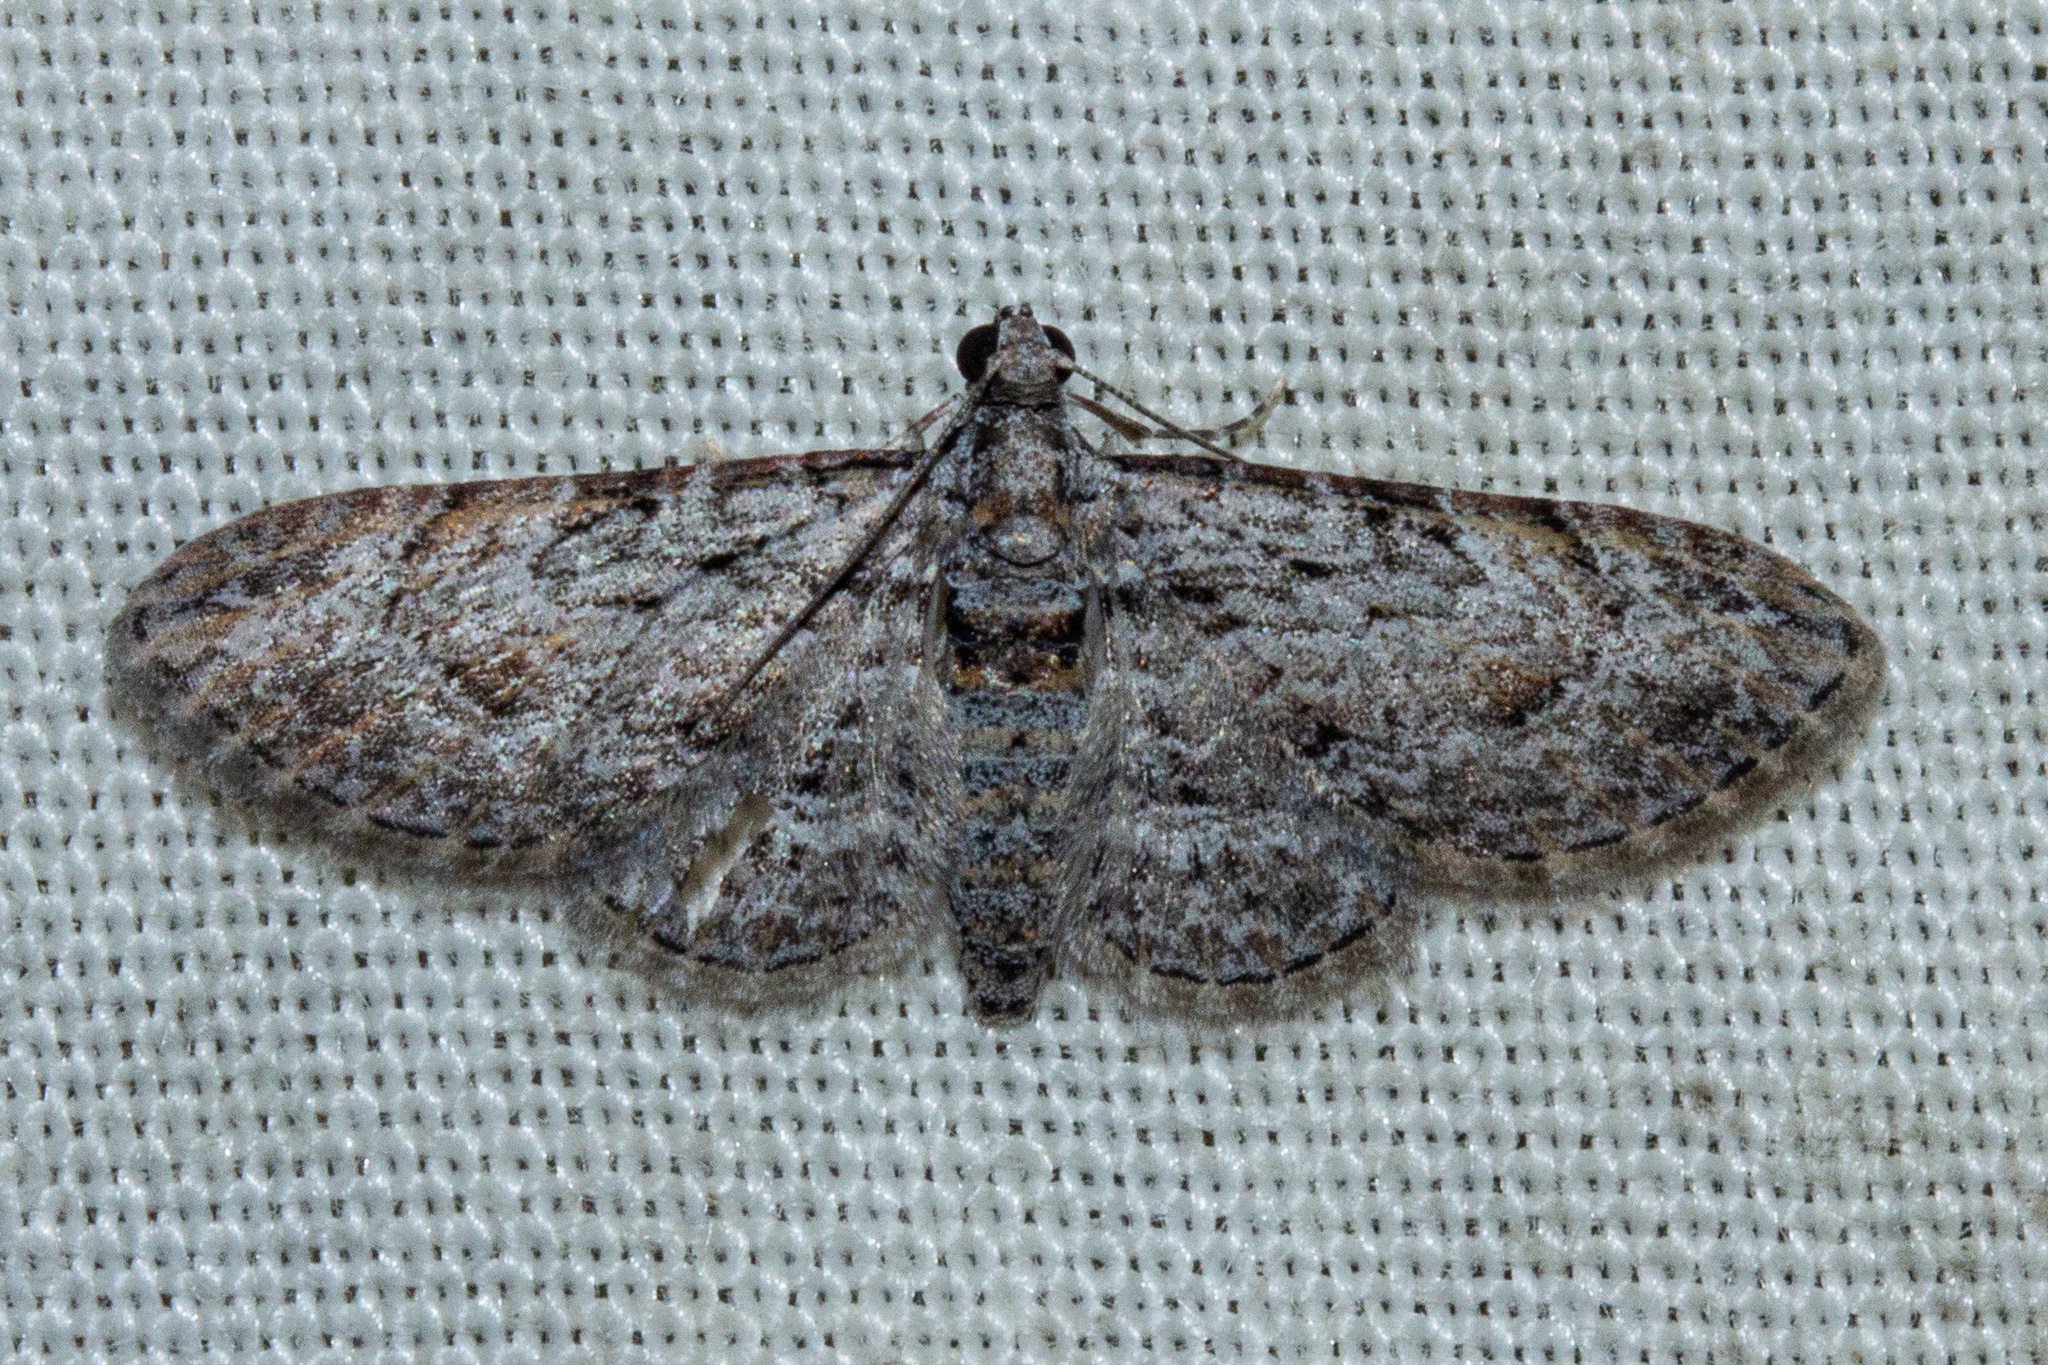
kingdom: Animalia
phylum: Arthropoda
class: Insecta
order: Lepidoptera
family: Geometridae
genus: Chloroclystis
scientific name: Chloroclystis insigillata
